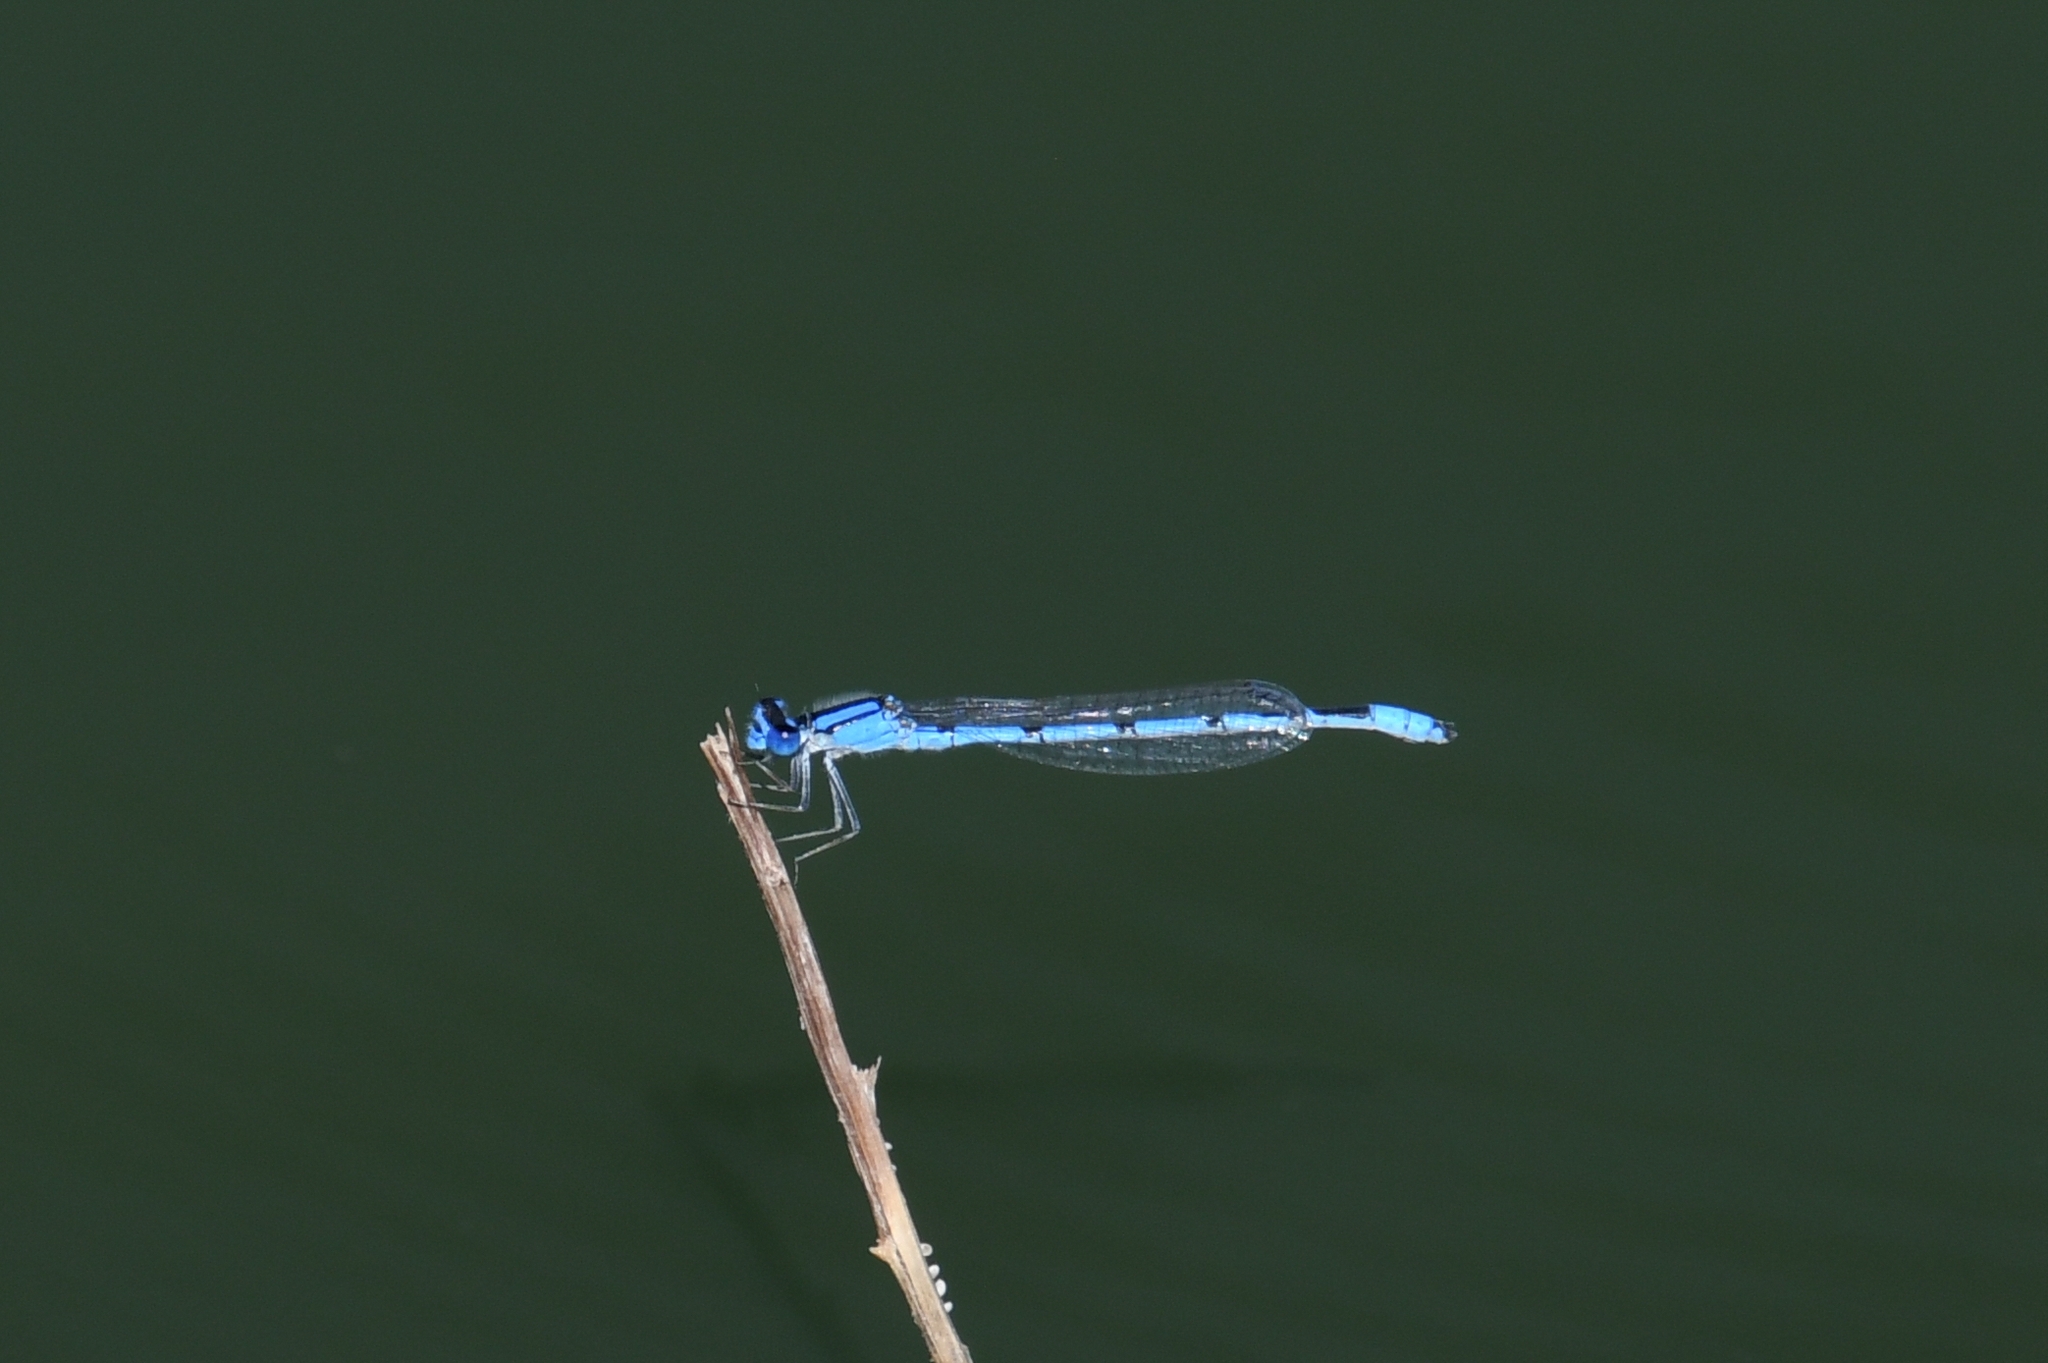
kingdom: Animalia
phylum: Arthropoda
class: Insecta
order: Odonata
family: Coenagrionidae
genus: Enallagma
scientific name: Enallagma civile
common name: Damselfly
